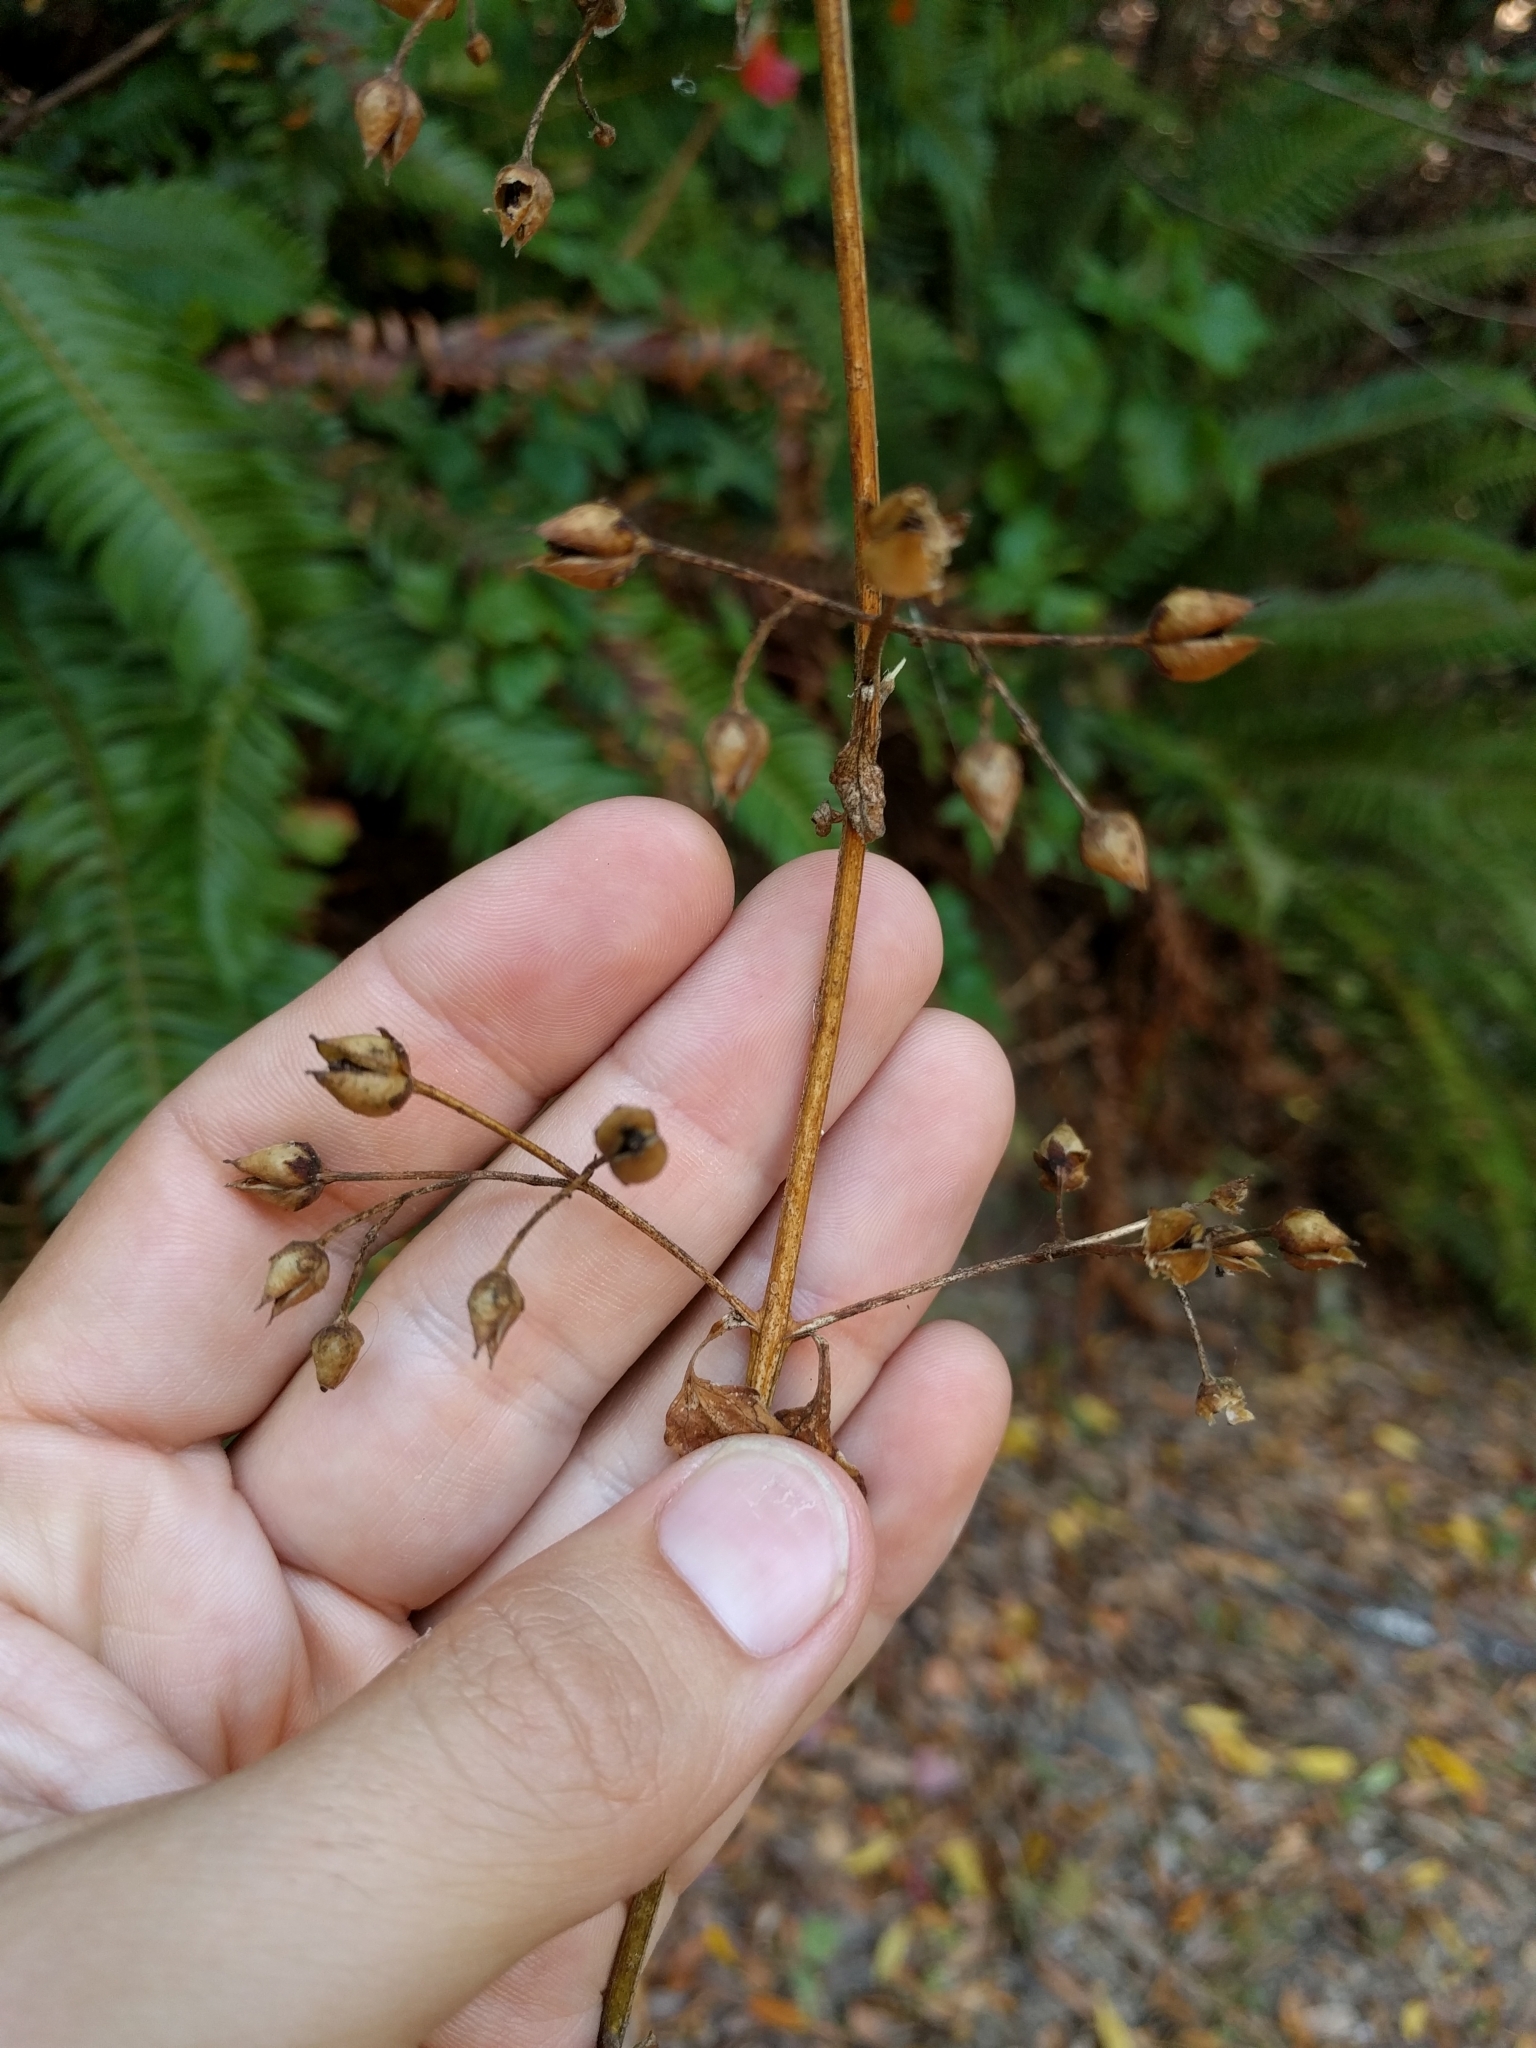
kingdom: Plantae
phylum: Tracheophyta
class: Magnoliopsida
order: Lamiales
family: Scrophulariaceae
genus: Scrophularia
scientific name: Scrophularia californica
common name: California figwort
